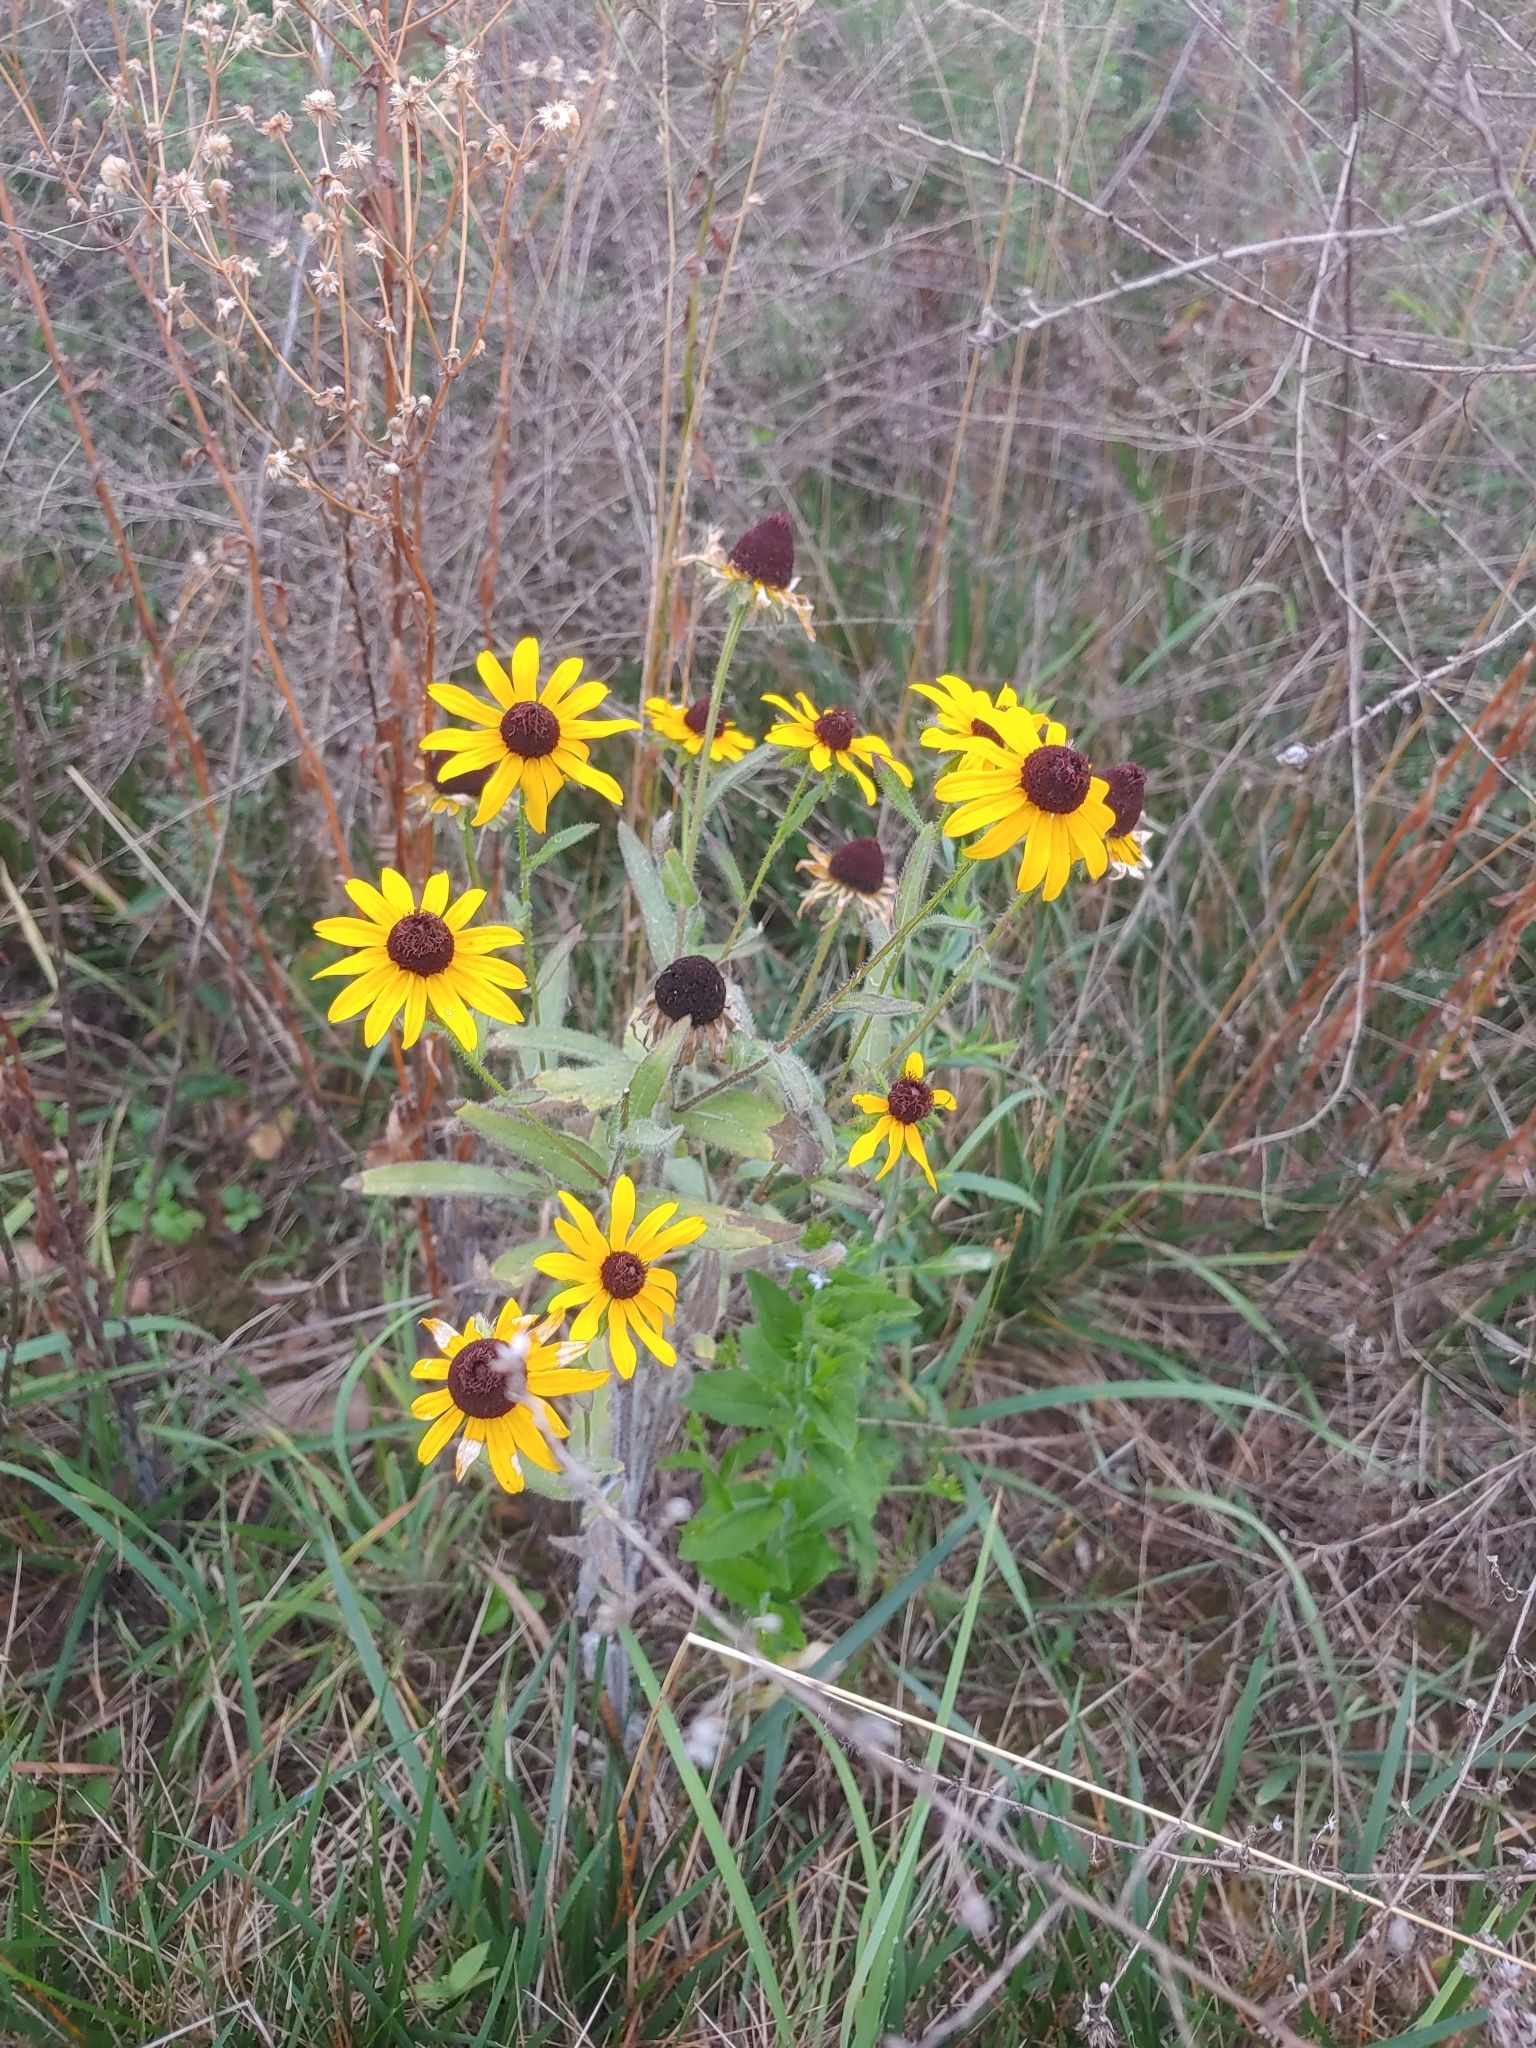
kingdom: Plantae
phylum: Tracheophyta
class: Magnoliopsida
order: Asterales
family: Asteraceae
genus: Rudbeckia
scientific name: Rudbeckia hirta
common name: Black-eyed-susan
